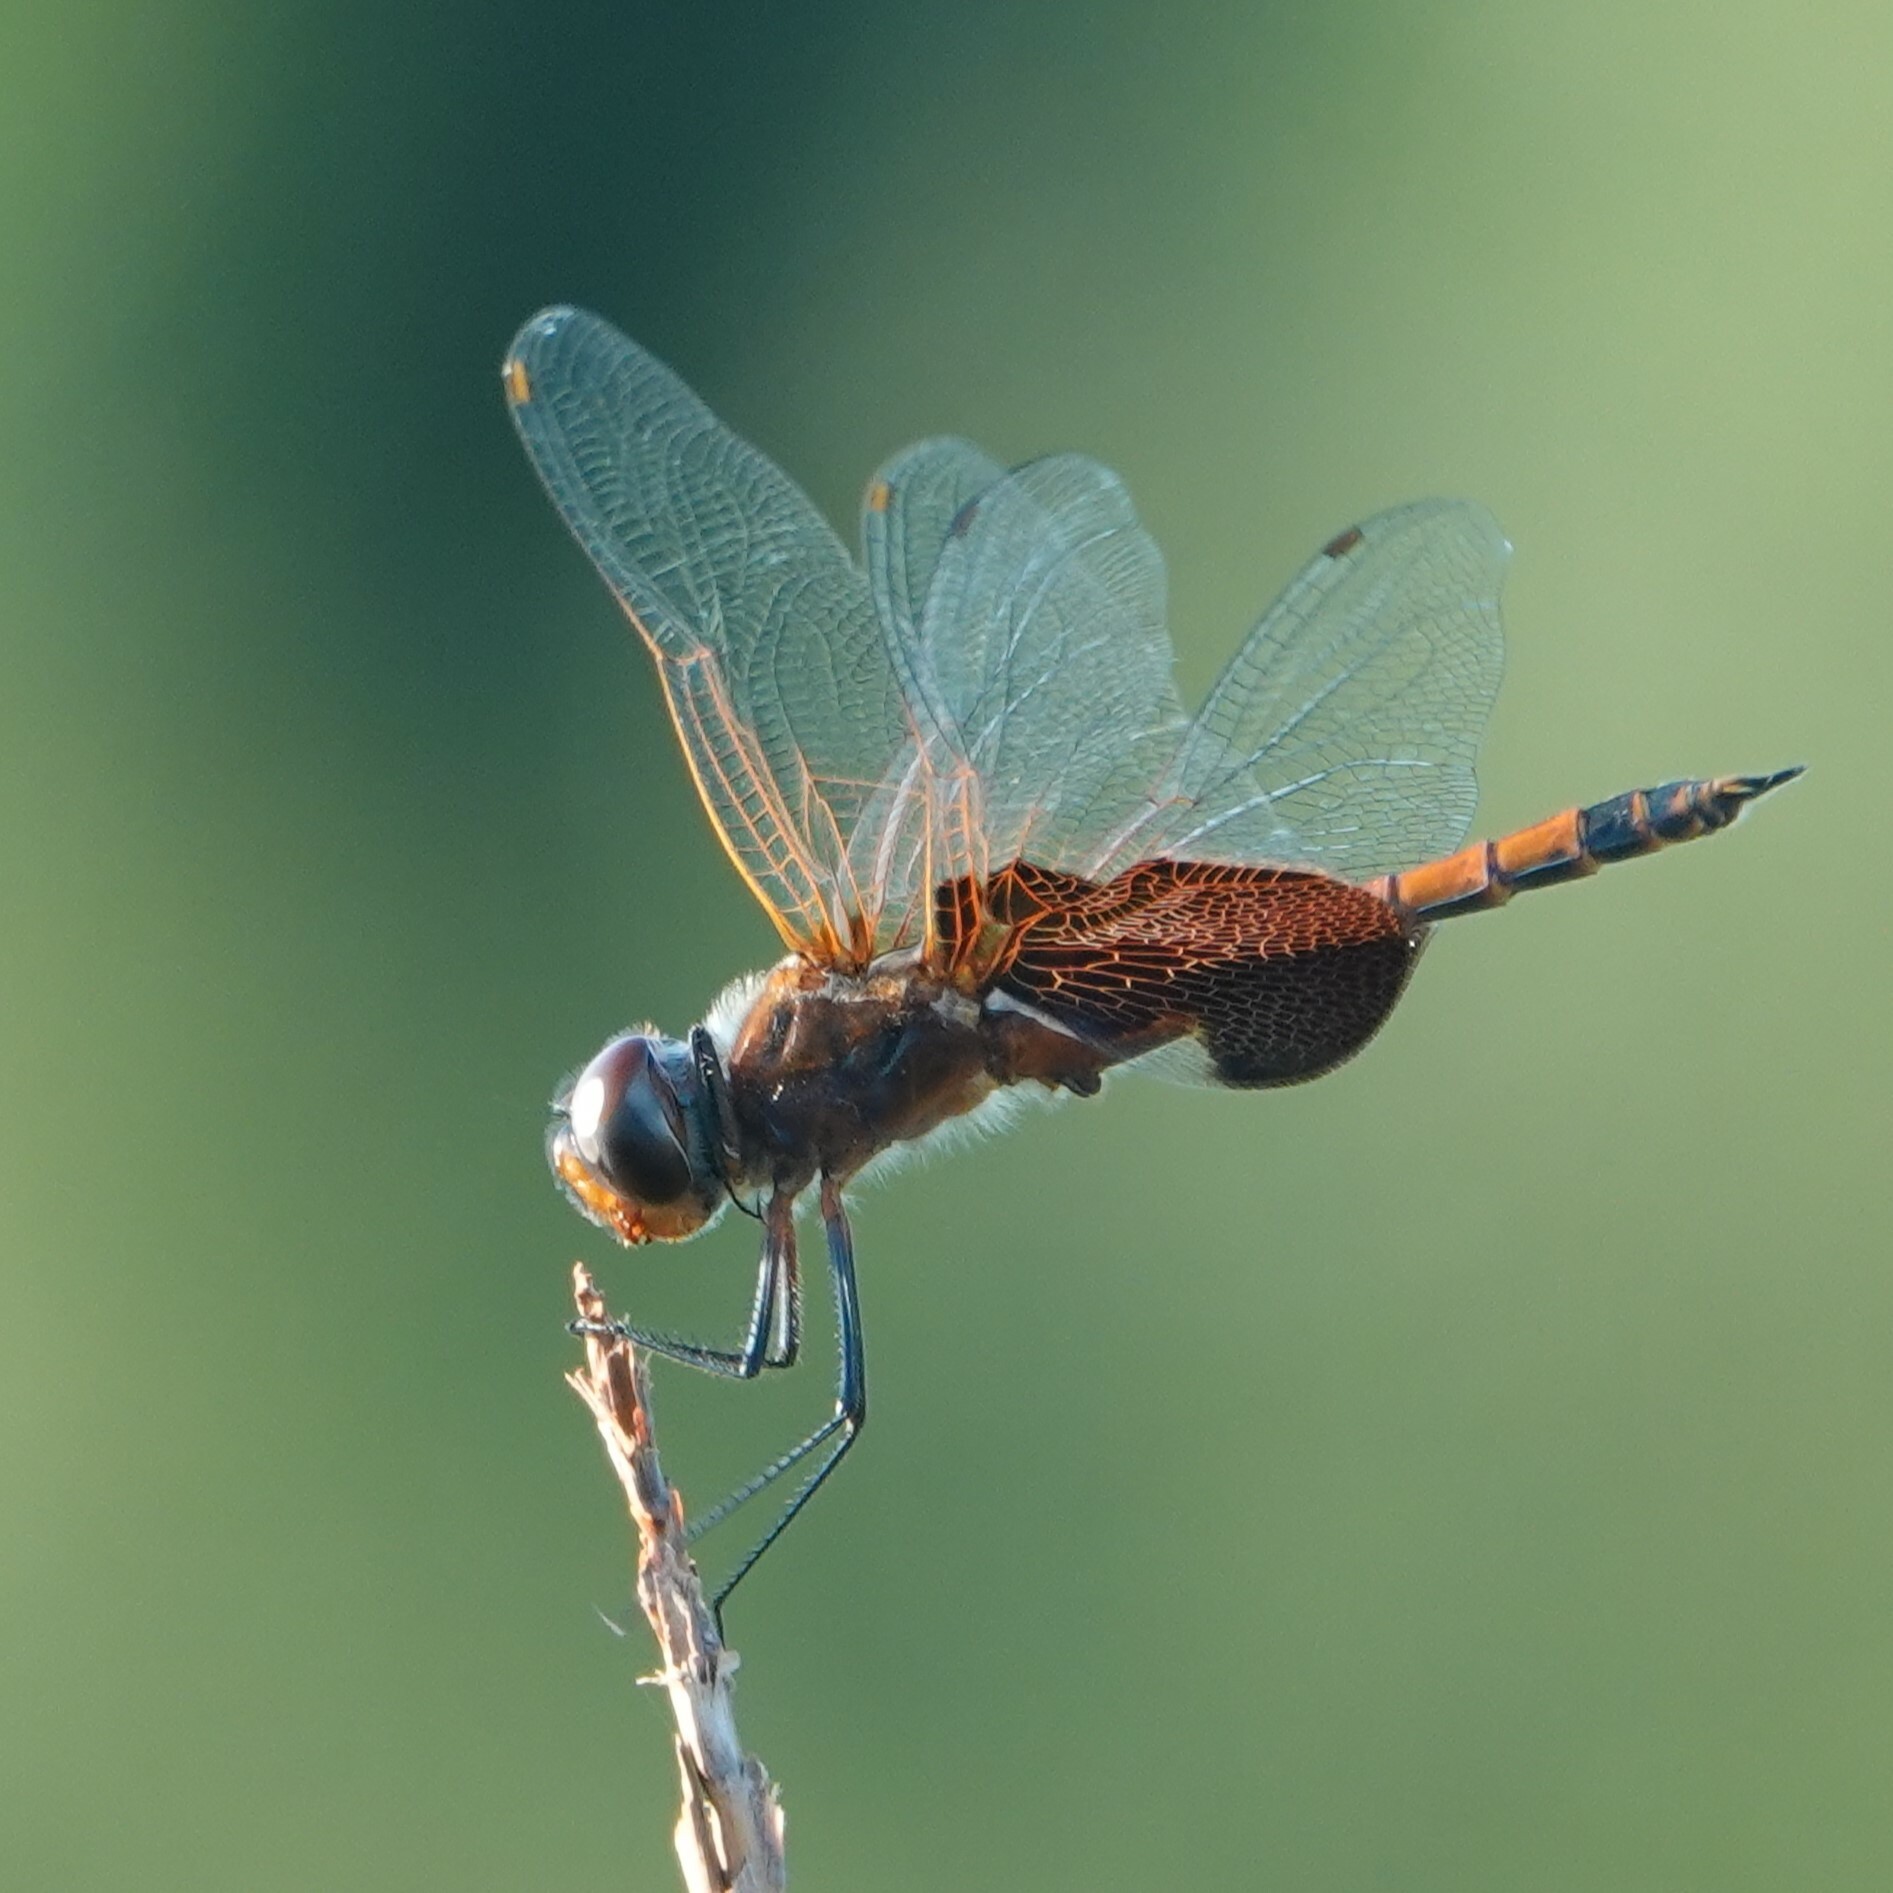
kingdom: Animalia
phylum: Arthropoda
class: Insecta
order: Odonata
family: Libellulidae
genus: Tramea
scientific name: Tramea carolina
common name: Carolina saddlebags
